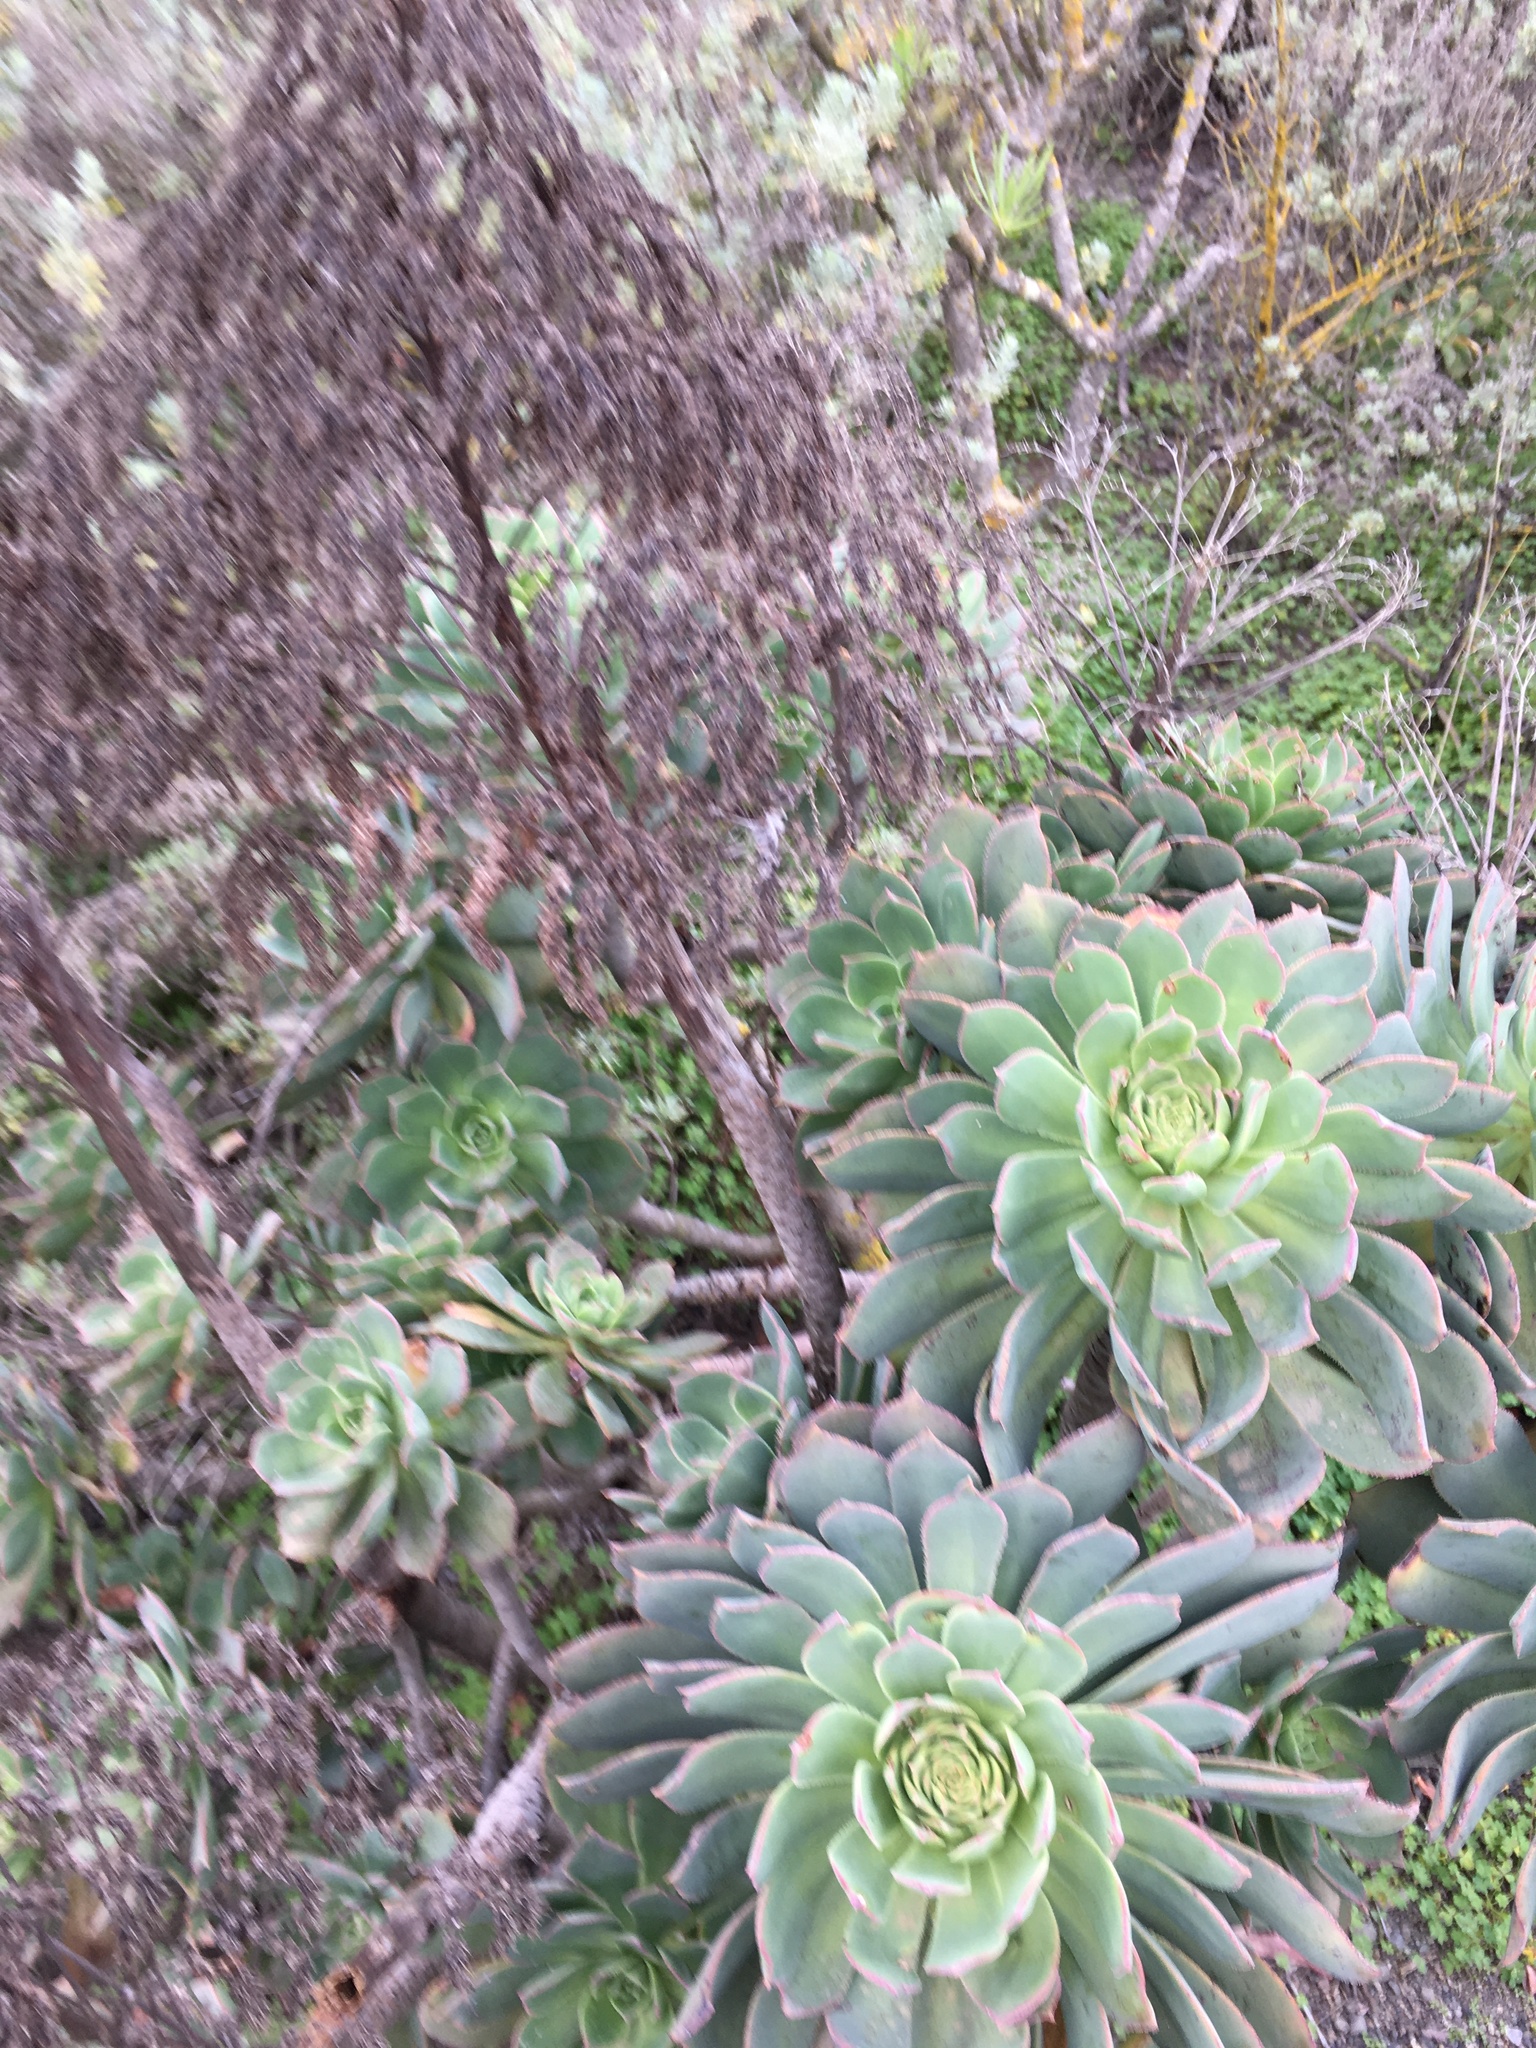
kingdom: Plantae
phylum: Tracheophyta
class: Magnoliopsida
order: Saxifragales
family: Crassulaceae
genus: Aeonium
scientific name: Aeonium percarneum
